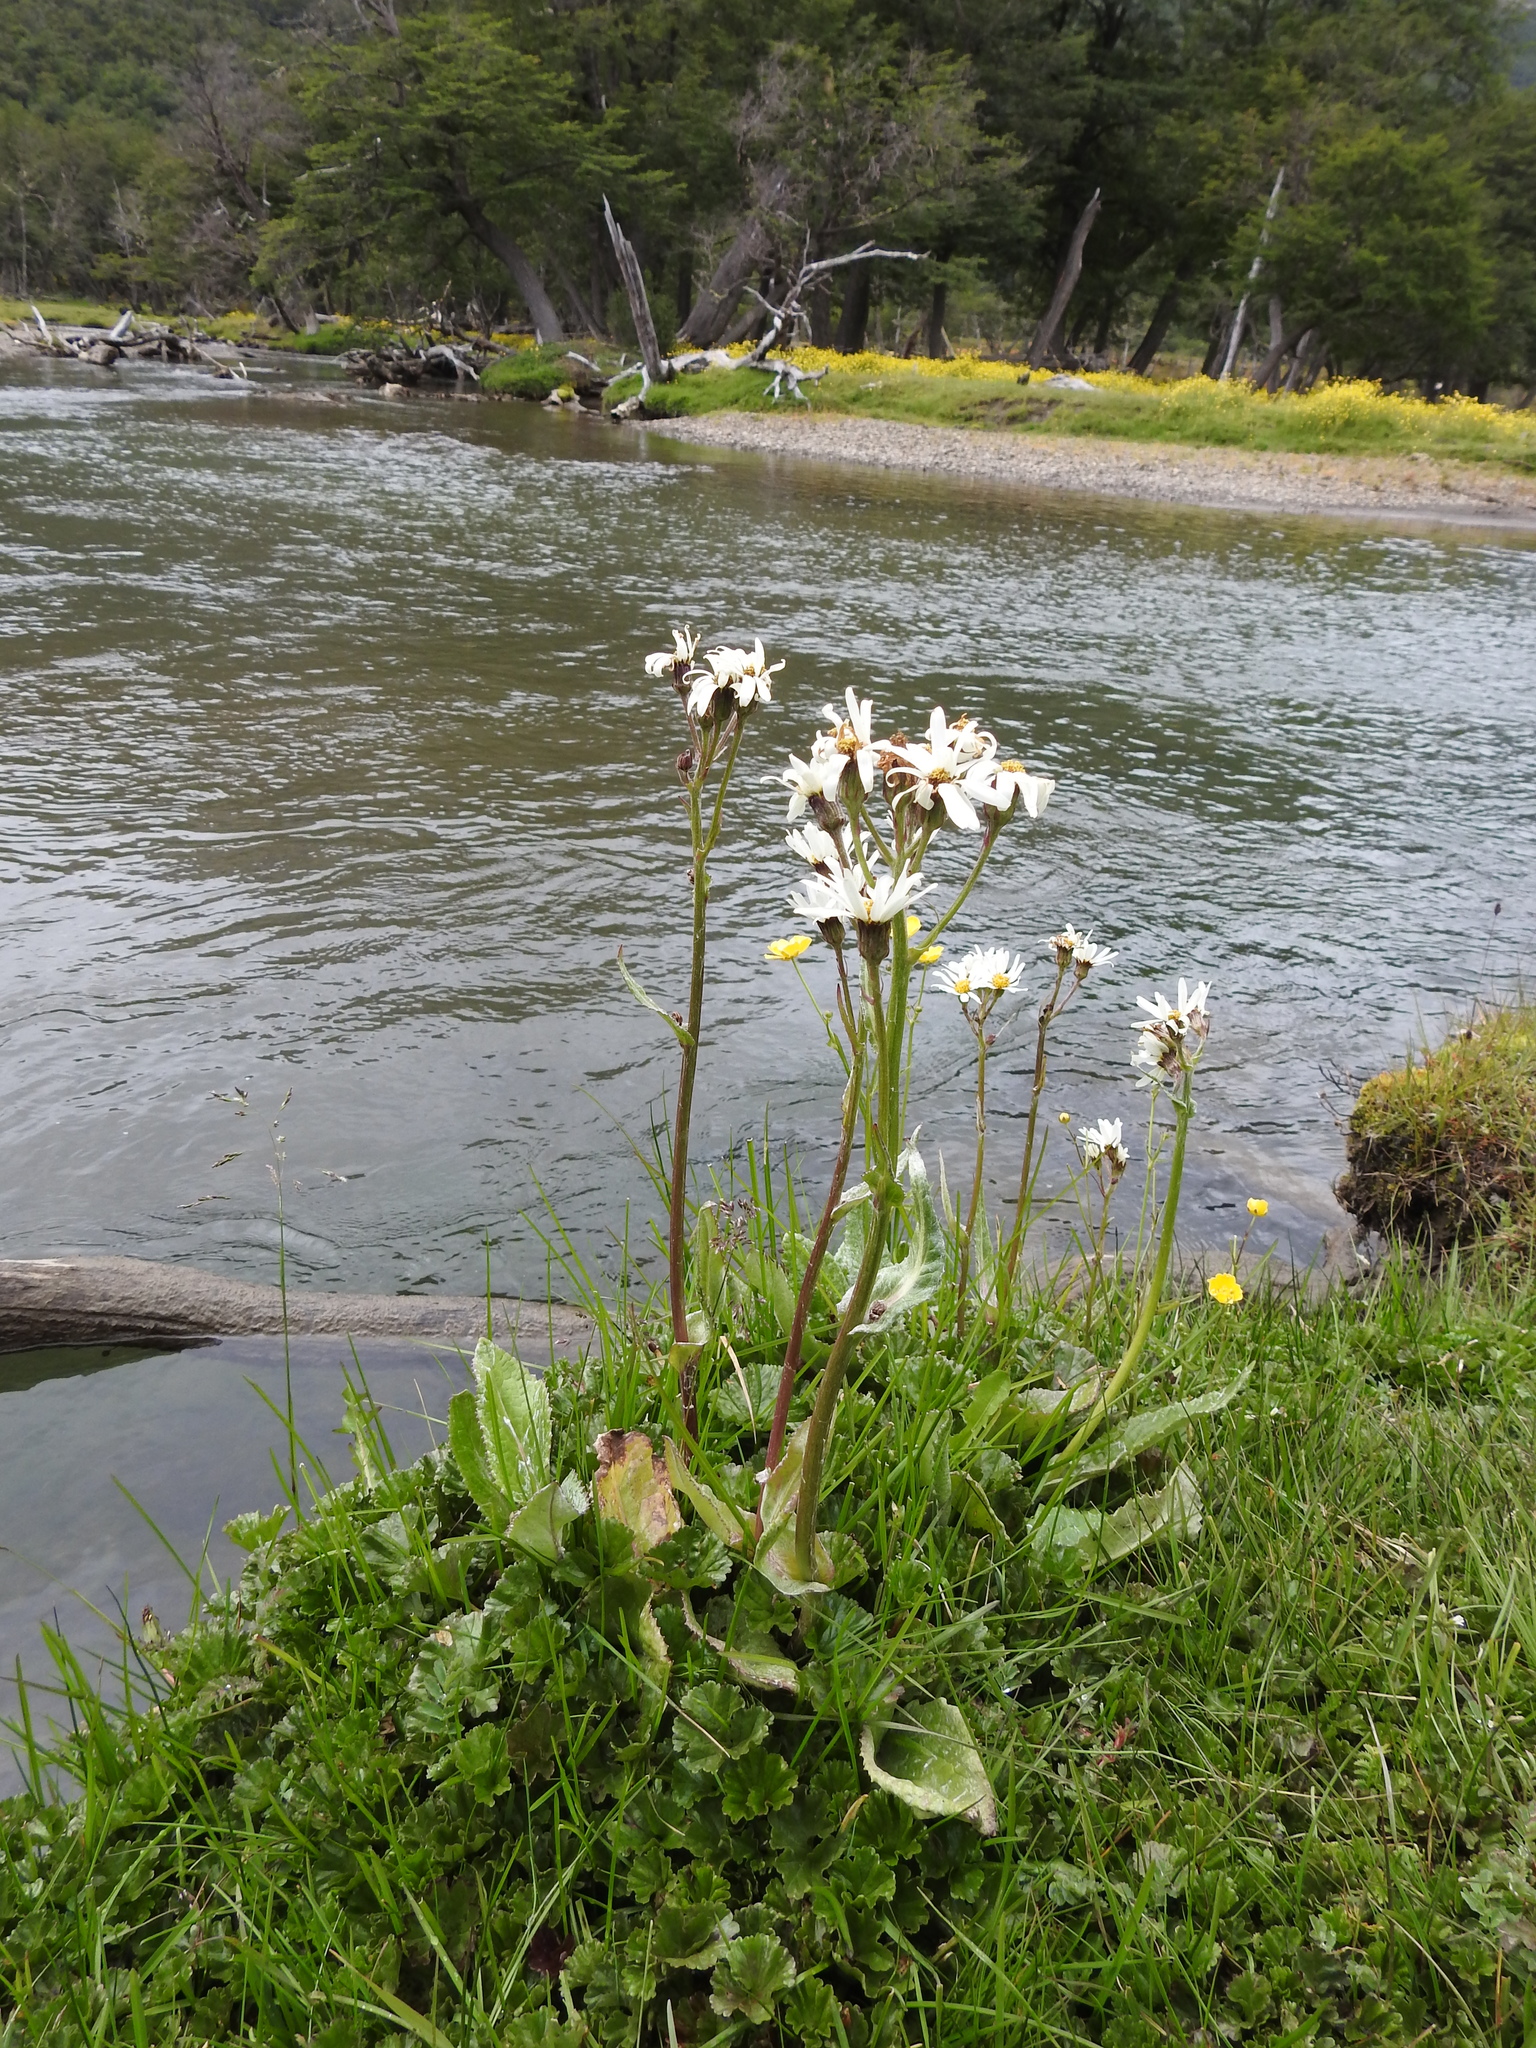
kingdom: Plantae
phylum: Tracheophyta
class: Magnoliopsida
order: Asterales
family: Asteraceae
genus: Senecio
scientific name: Senecio smithii
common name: Magellan ragwort
